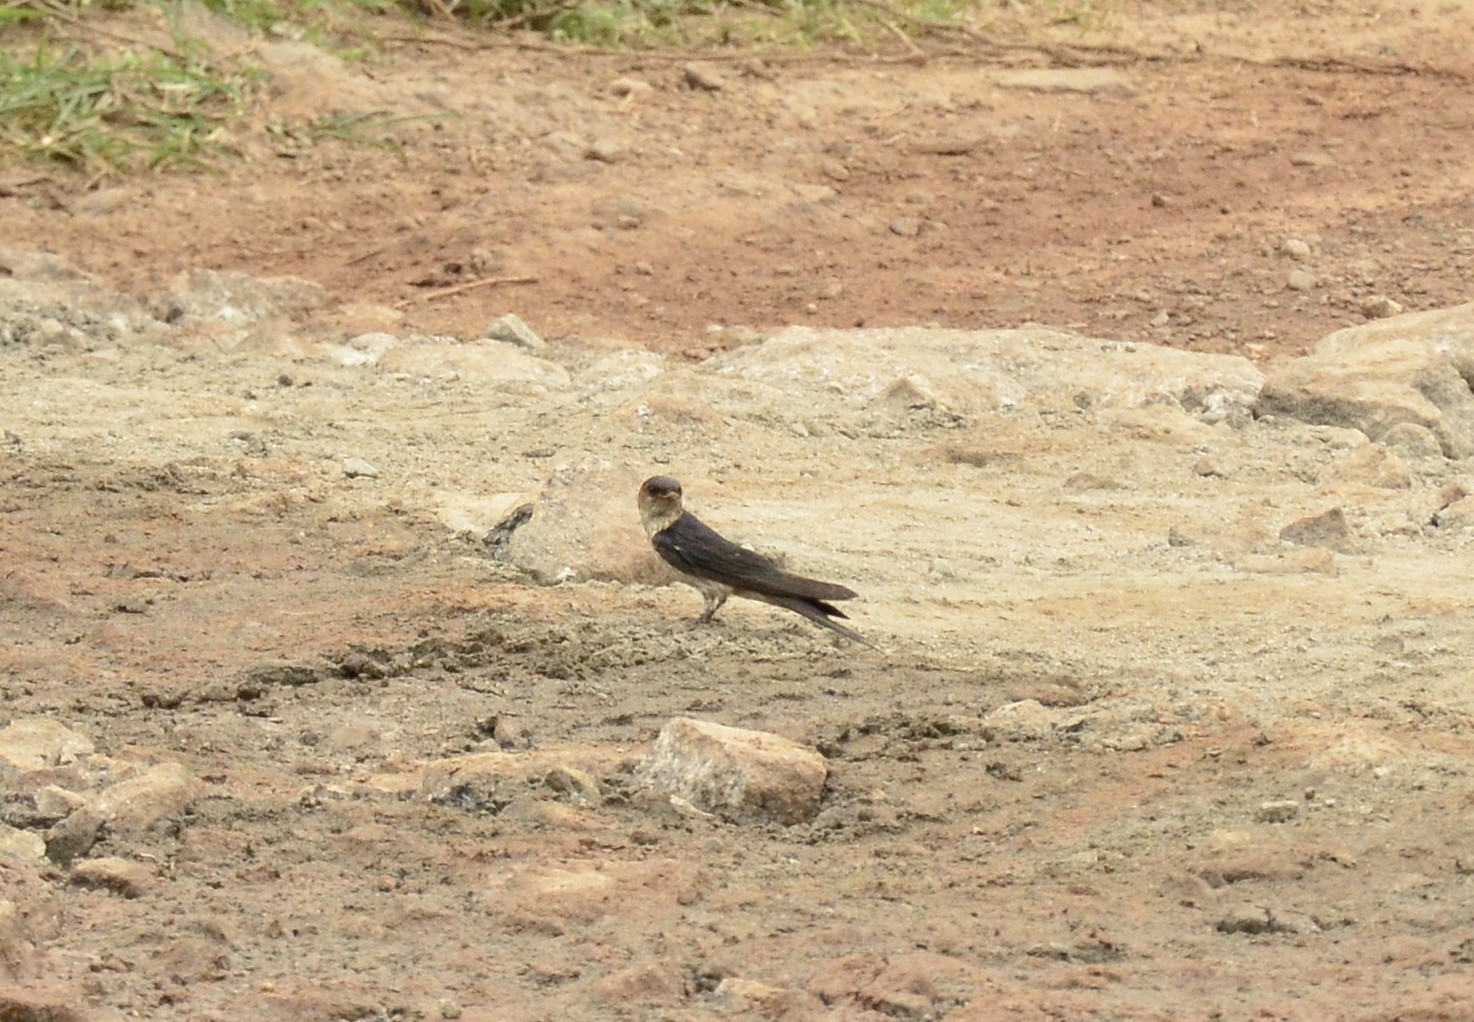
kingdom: Animalia
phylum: Chordata
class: Aves
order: Passeriformes
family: Hirundinidae
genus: Cecropis
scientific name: Cecropis daurica
